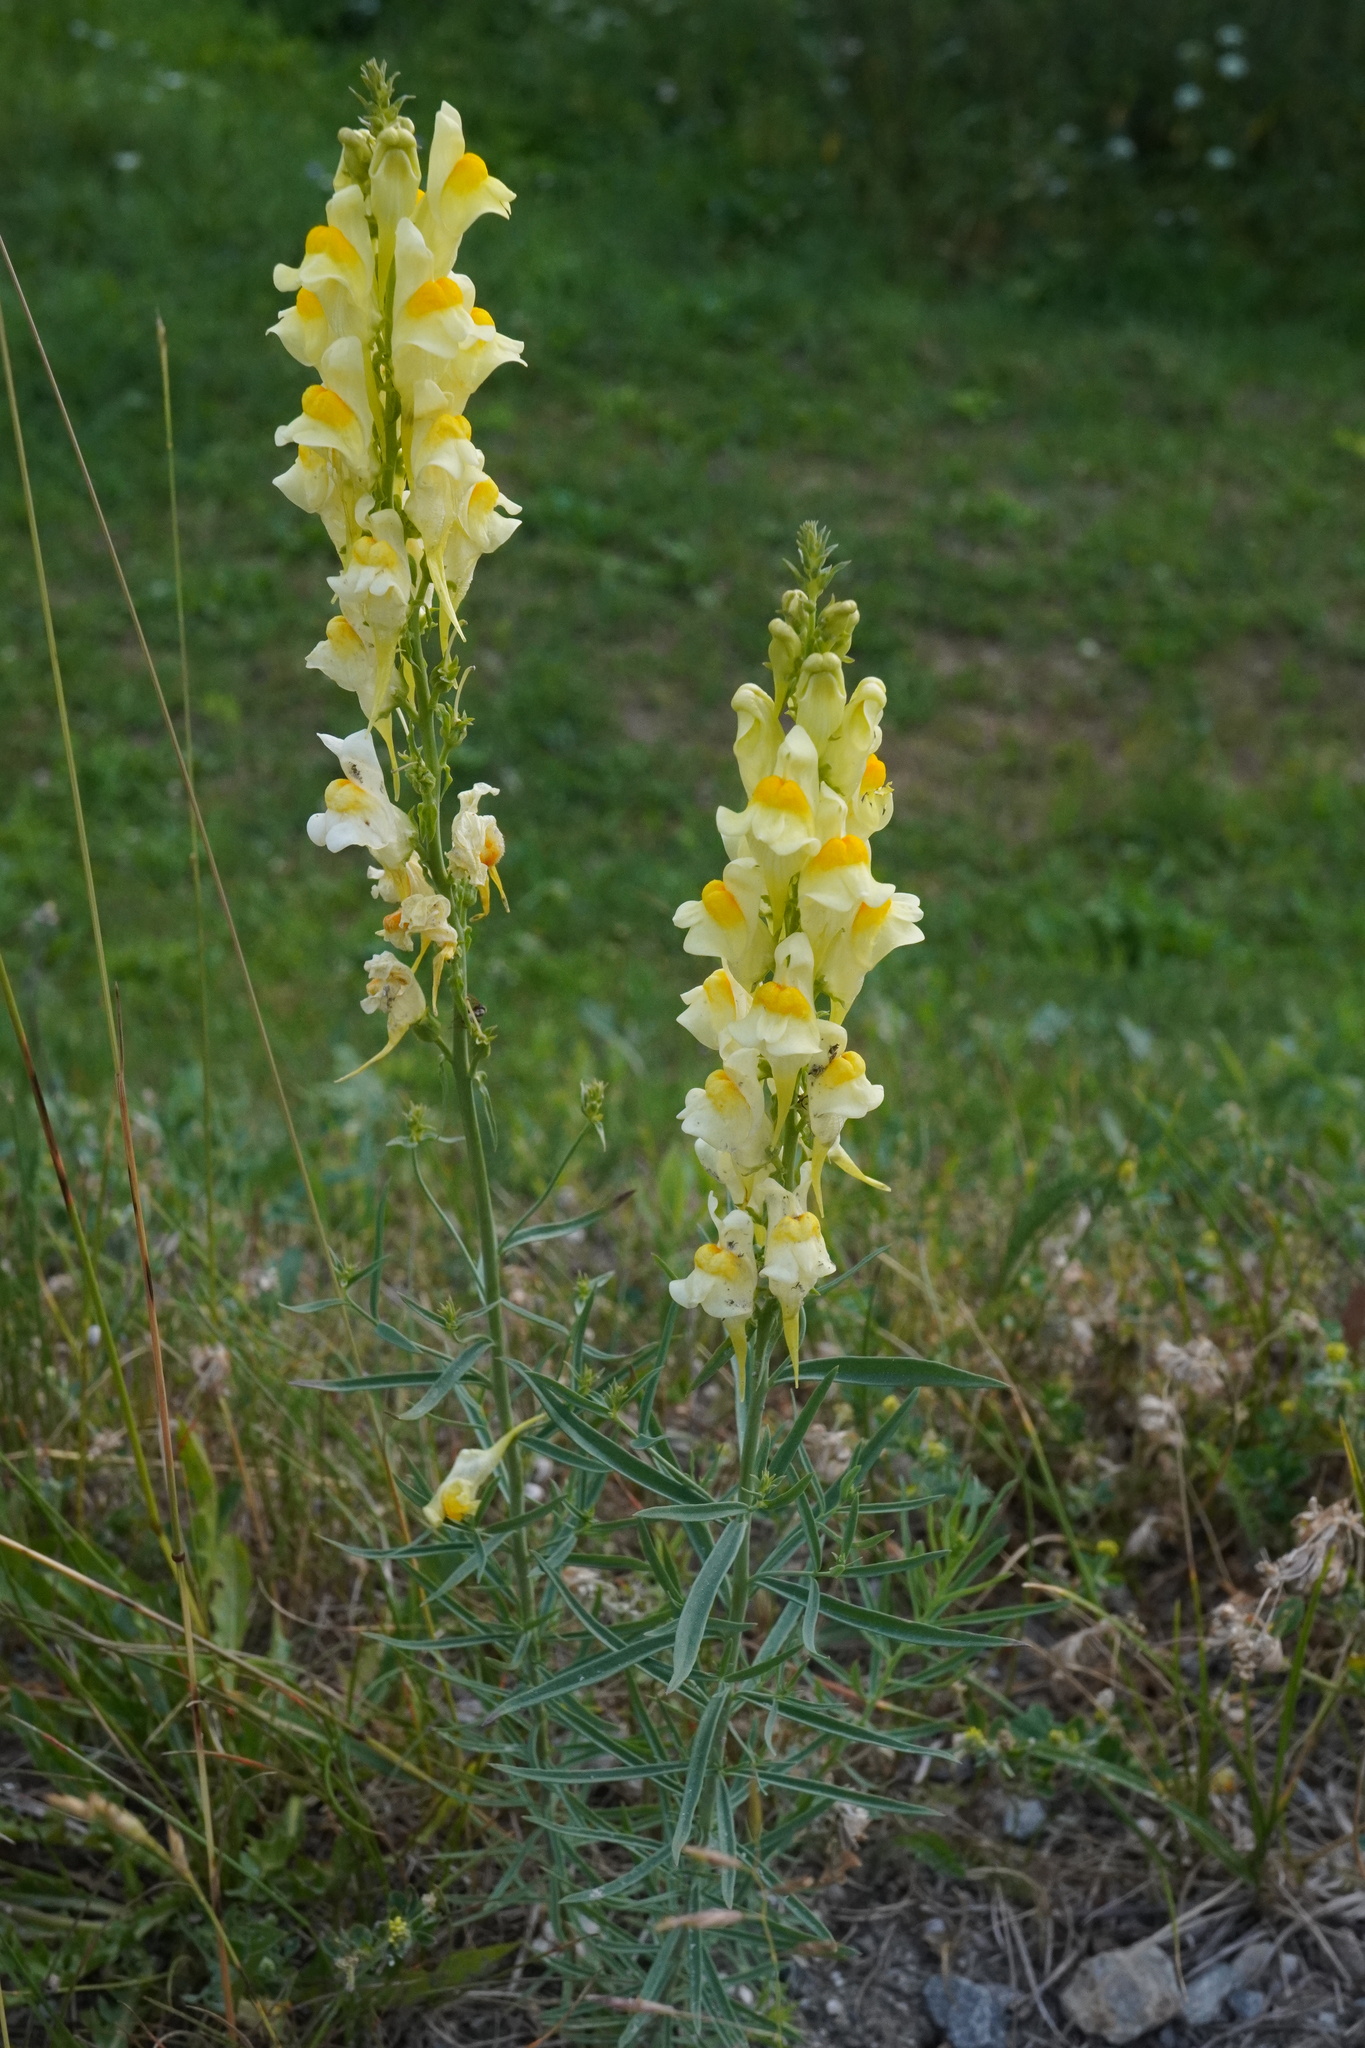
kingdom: Plantae
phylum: Tracheophyta
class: Magnoliopsida
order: Lamiales
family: Plantaginaceae
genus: Linaria
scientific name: Linaria vulgaris
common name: Butter and eggs
